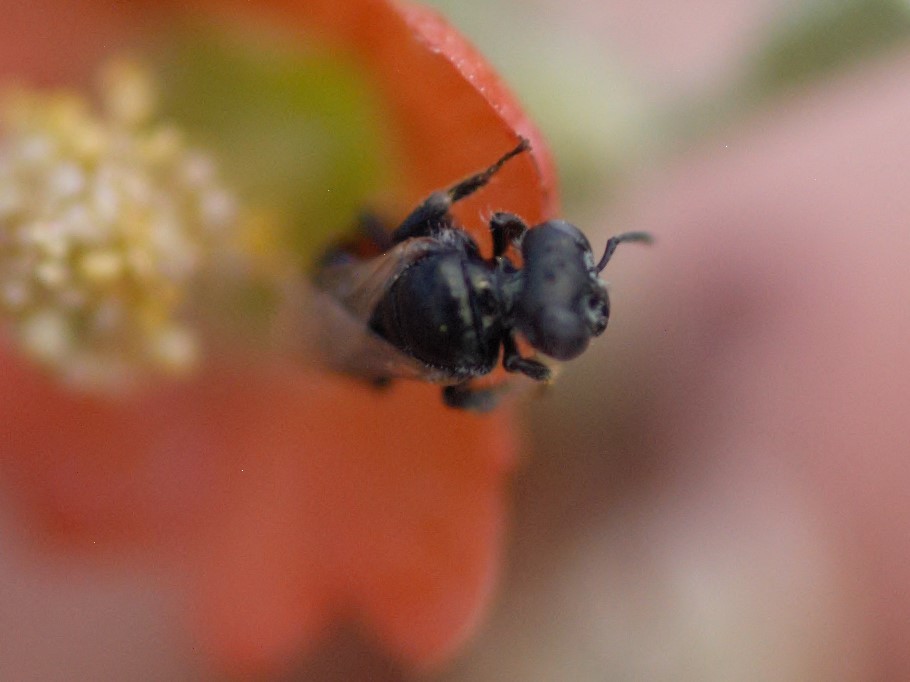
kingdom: Animalia
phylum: Arthropoda
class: Insecta
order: Hymenoptera
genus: Macroteropsis
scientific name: Macroteropsis
